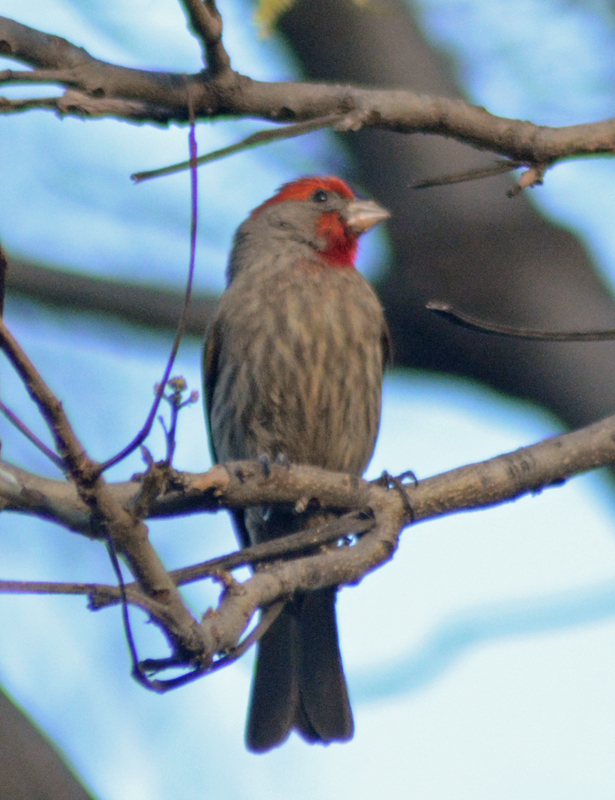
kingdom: Animalia
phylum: Chordata
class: Aves
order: Passeriformes
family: Fringillidae
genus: Haemorhous
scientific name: Haemorhous mexicanus
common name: House finch
